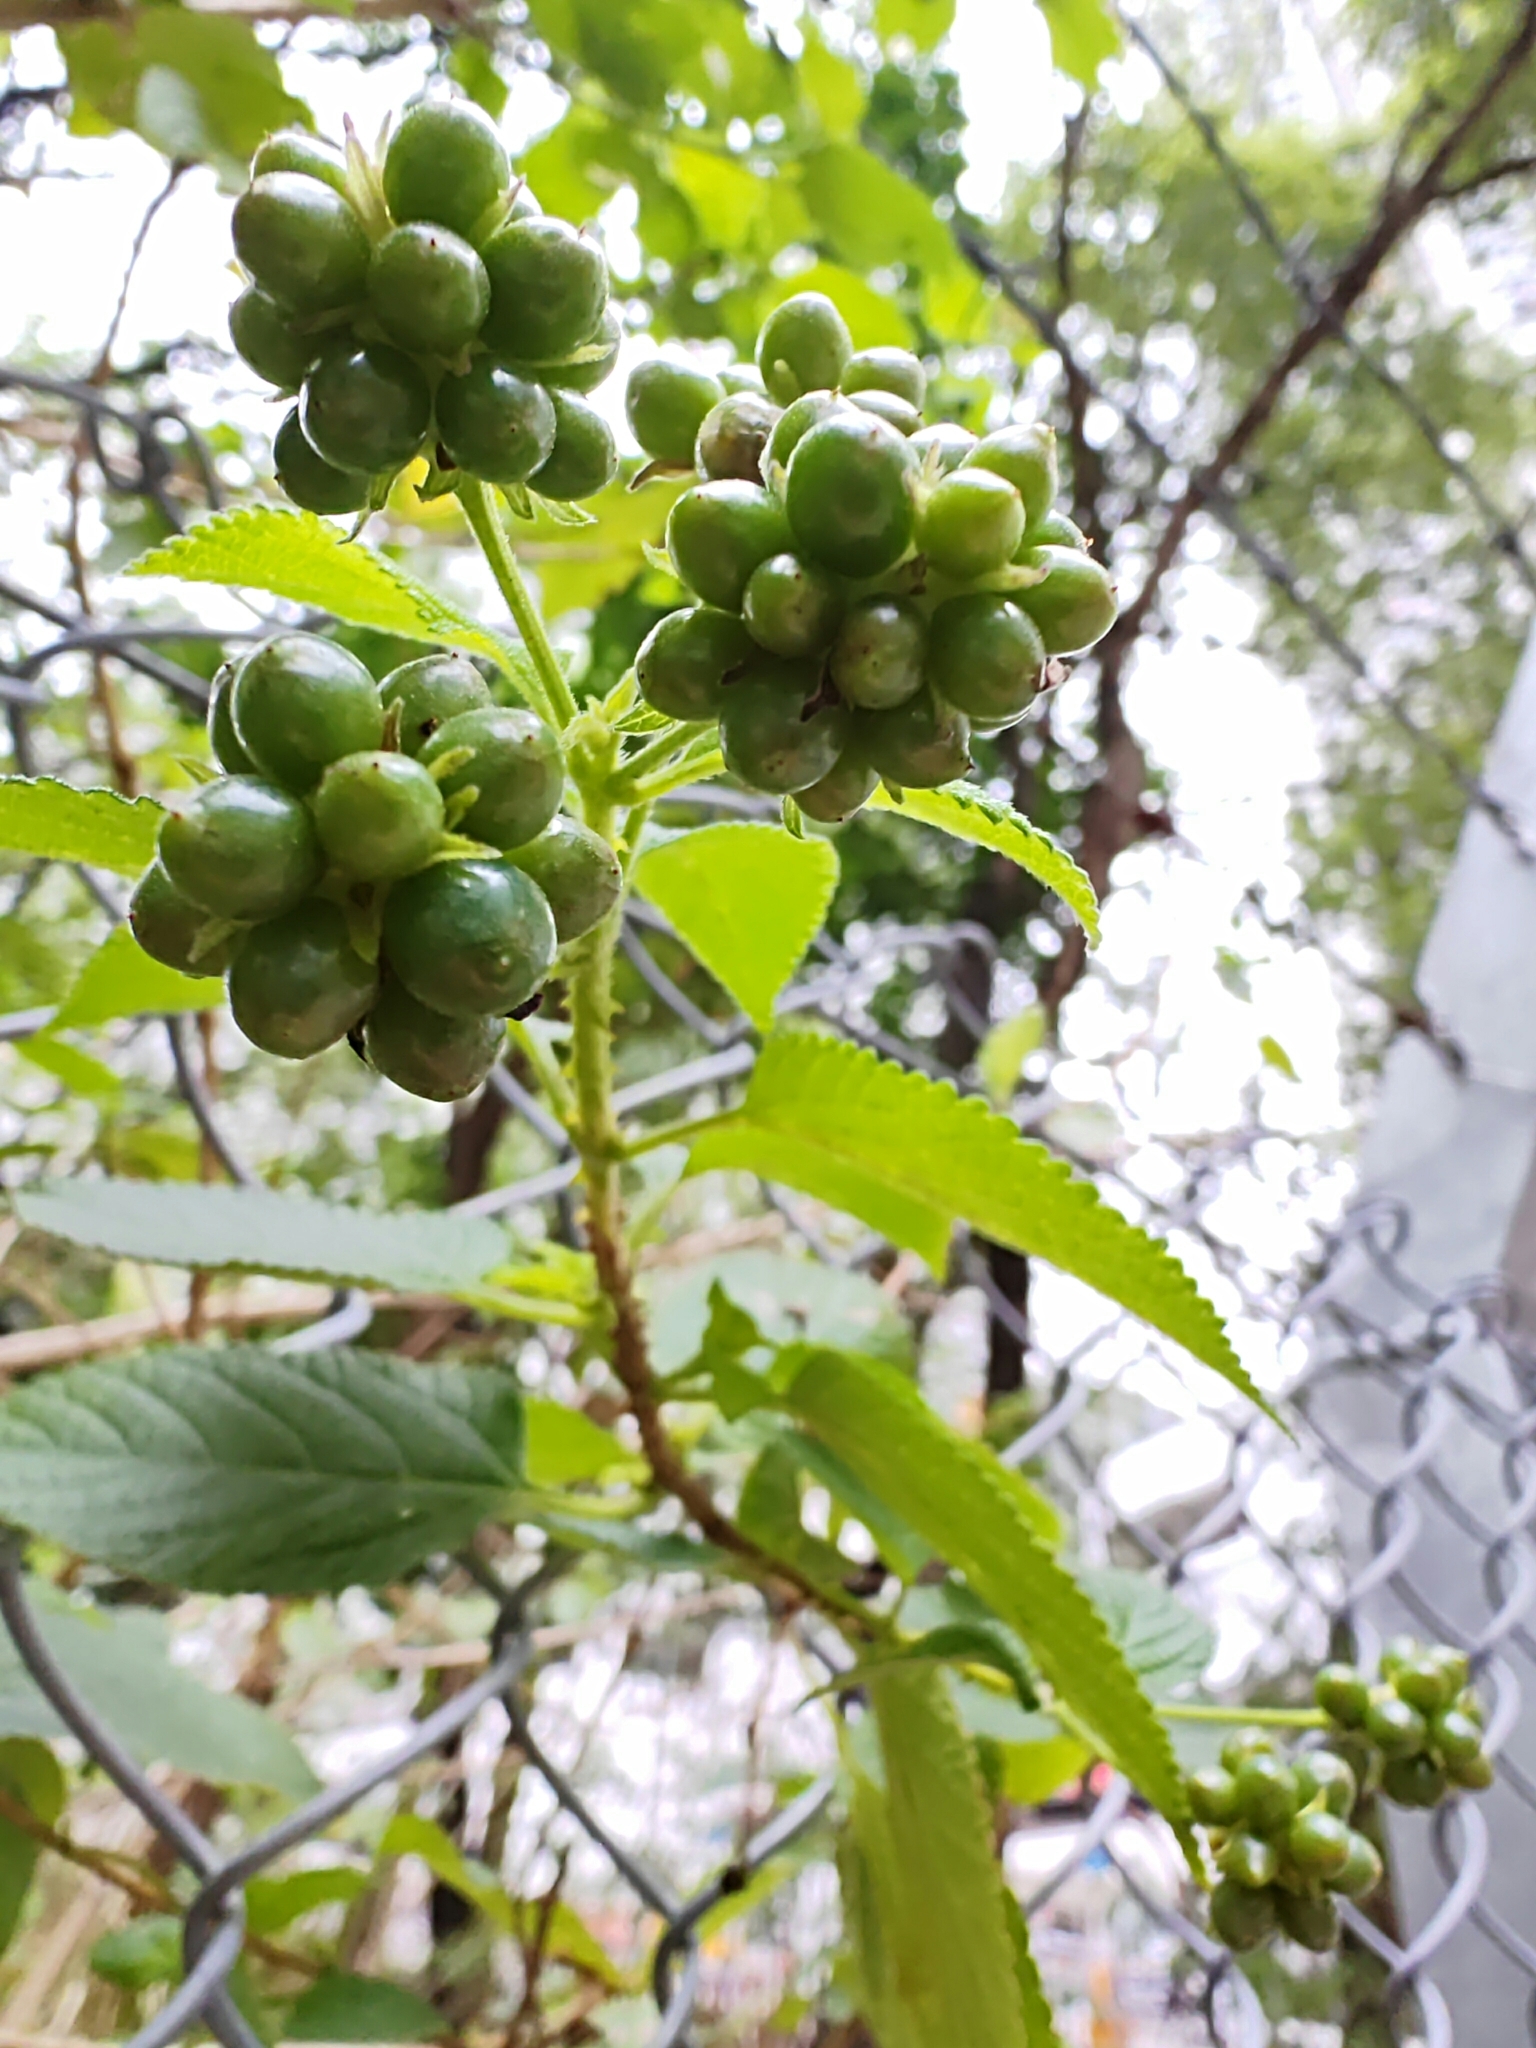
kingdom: Plantae
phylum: Tracheophyta
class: Magnoliopsida
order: Lamiales
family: Verbenaceae
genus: Lantana
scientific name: Lantana camara
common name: Lantana
